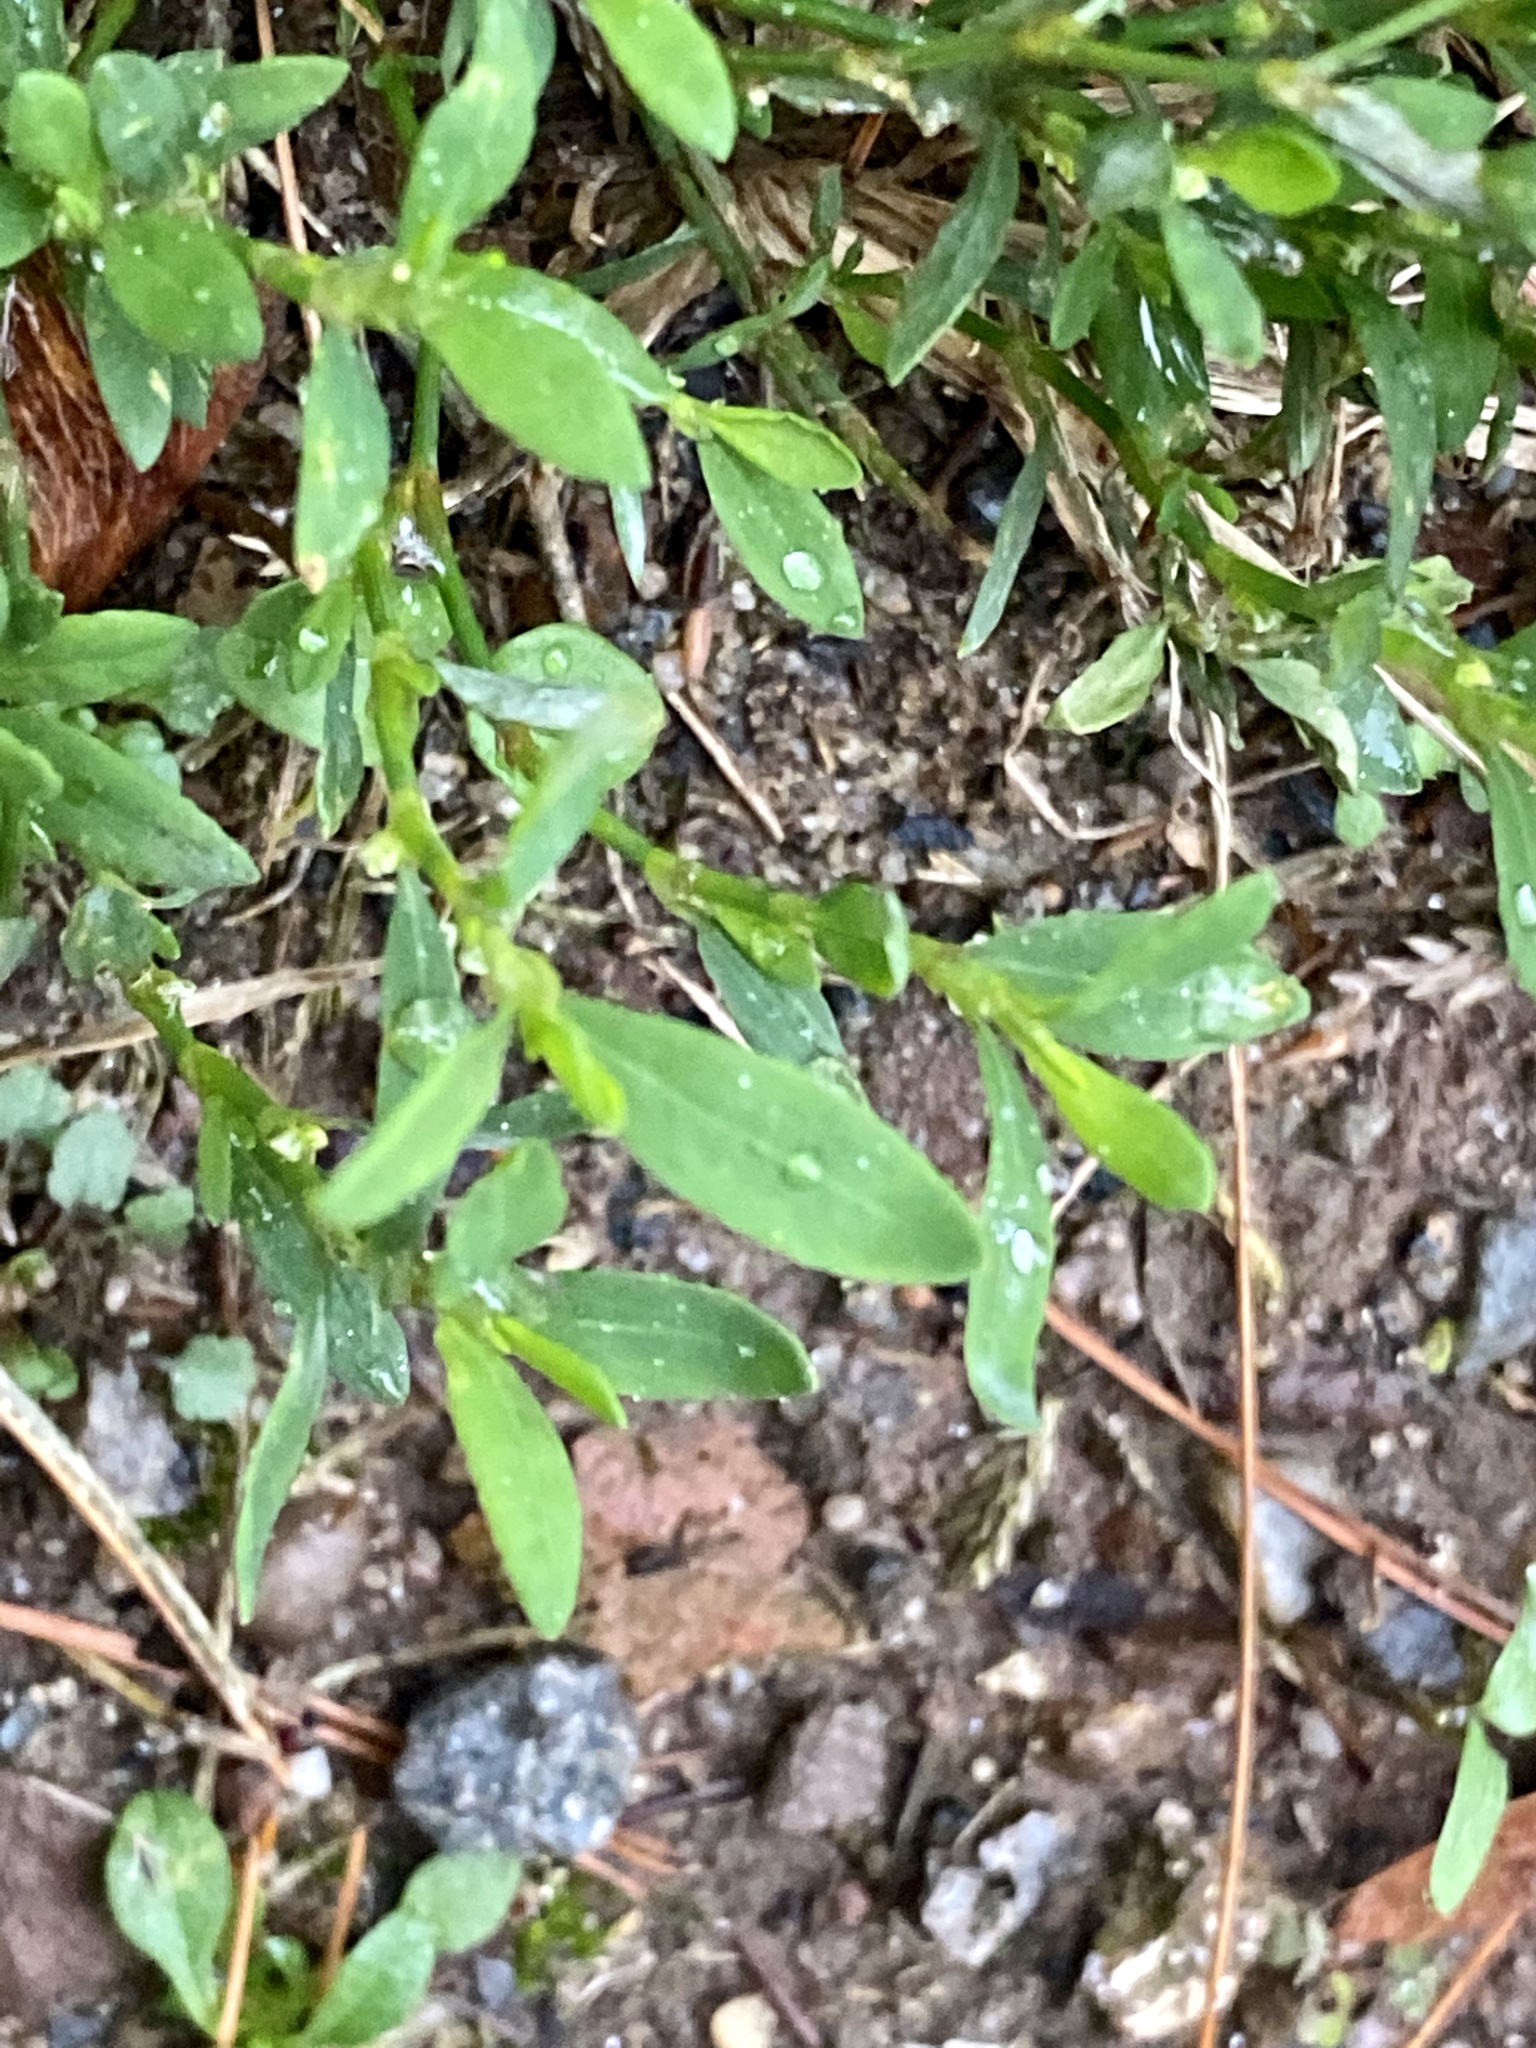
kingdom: Plantae
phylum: Tracheophyta
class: Magnoliopsida
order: Caryophyllales
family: Polygonaceae
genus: Polygonum
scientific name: Polygonum aviculare
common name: Prostrate knotweed
